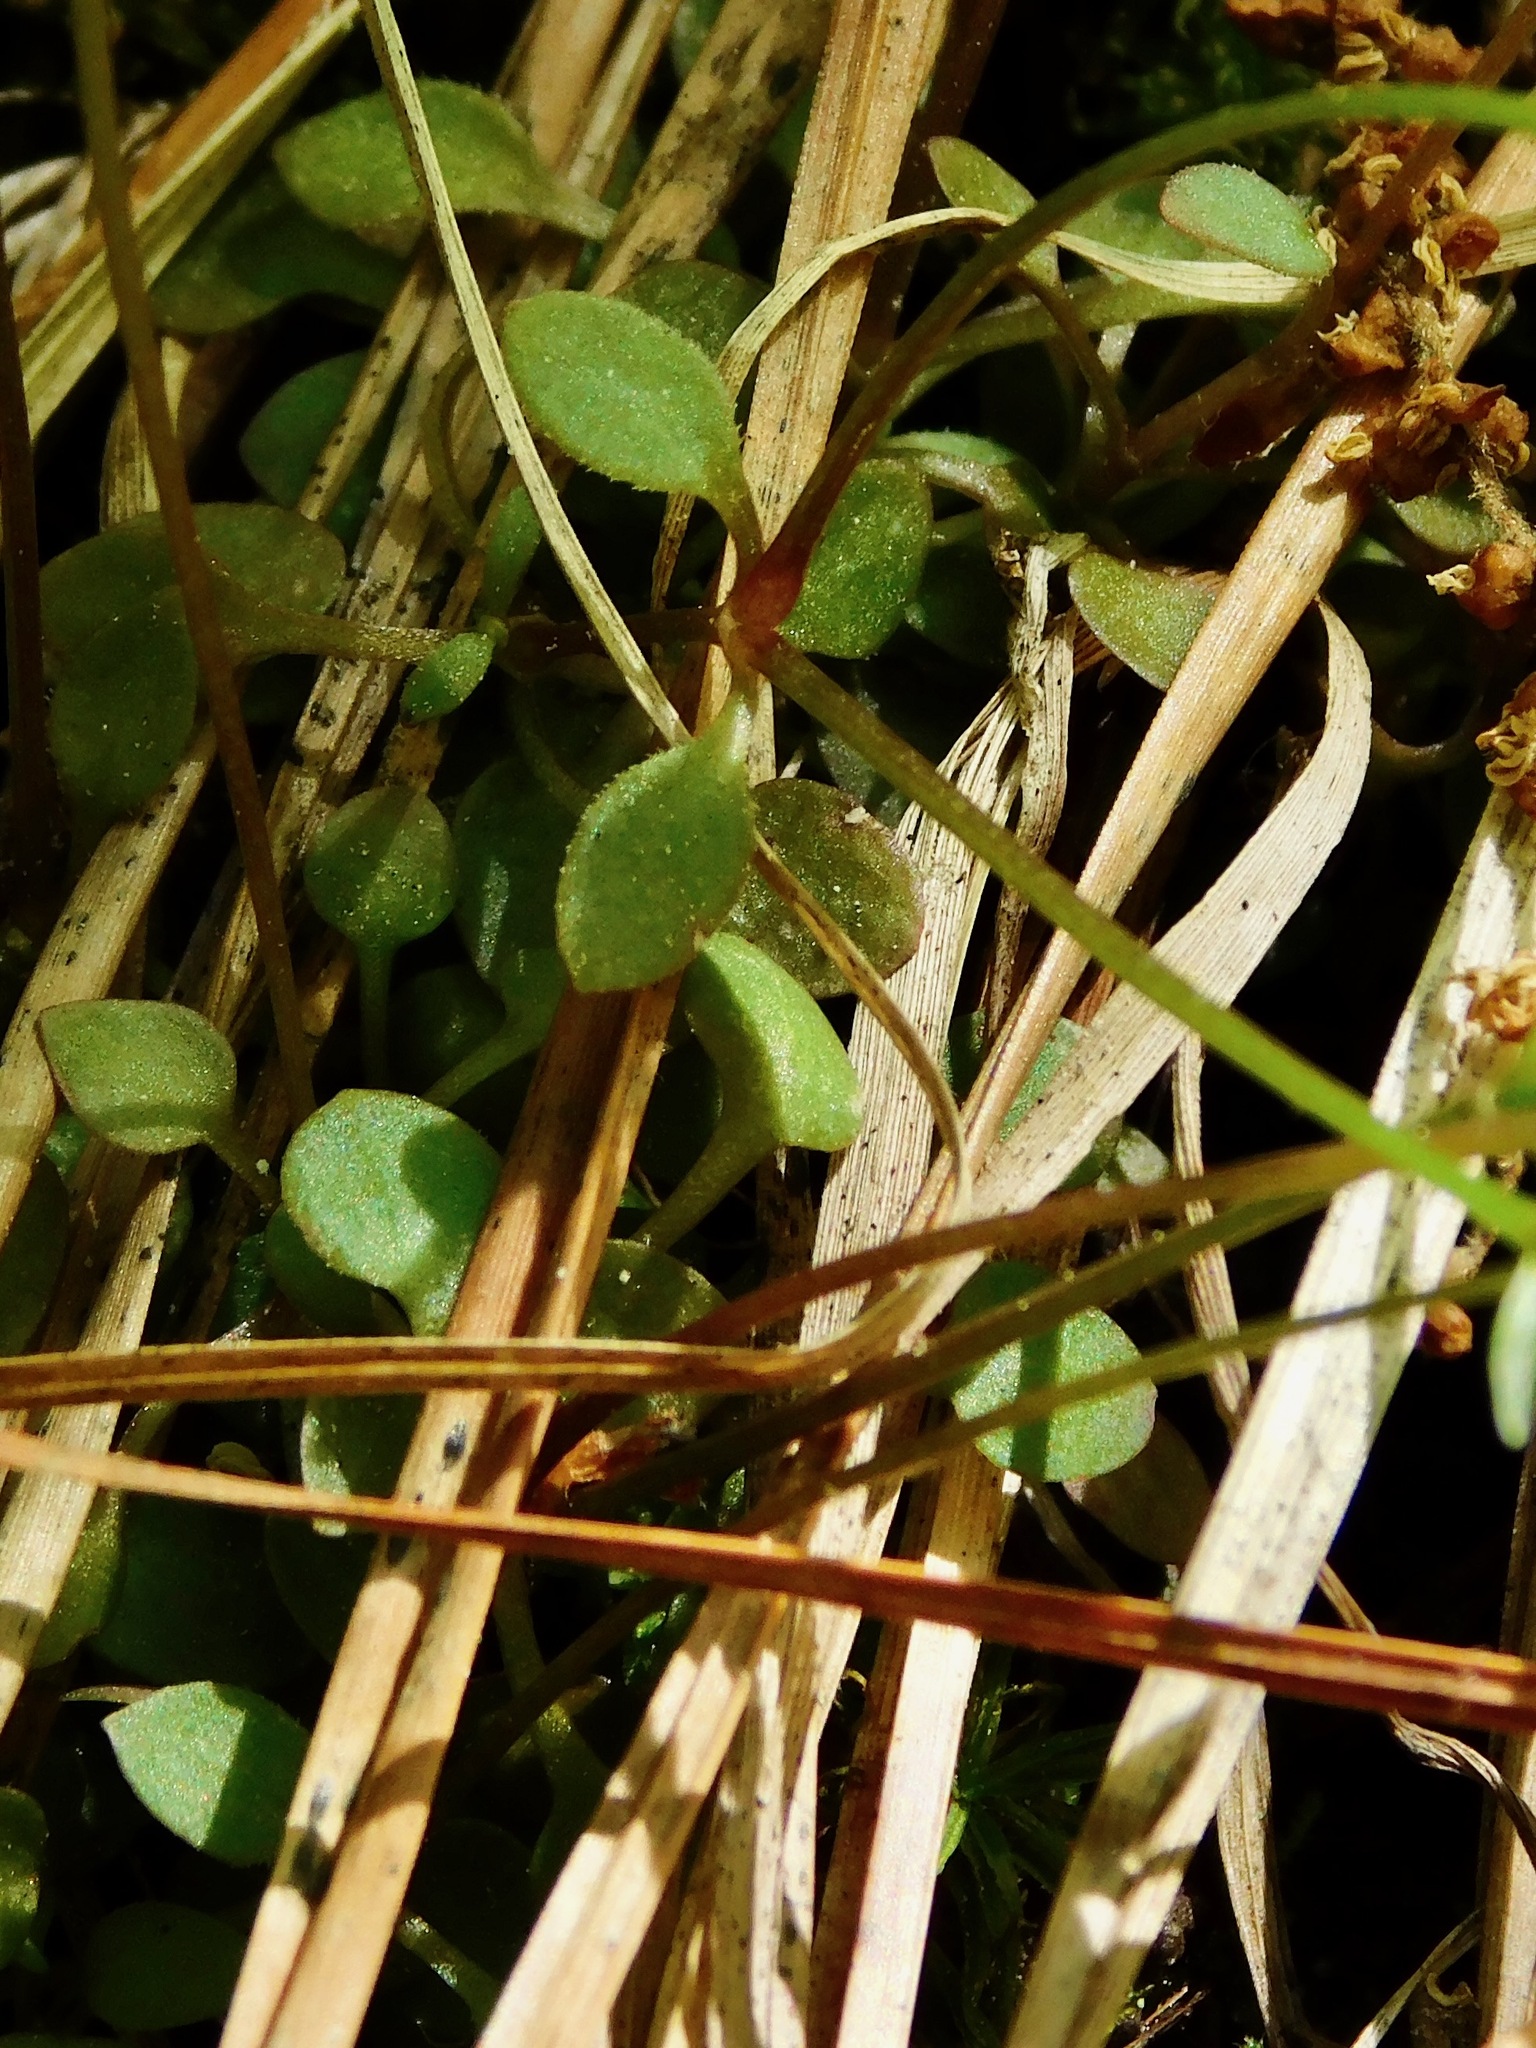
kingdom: Plantae
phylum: Tracheophyta
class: Magnoliopsida
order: Gentianales
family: Rubiaceae
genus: Houstonia
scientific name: Houstonia pusilla
